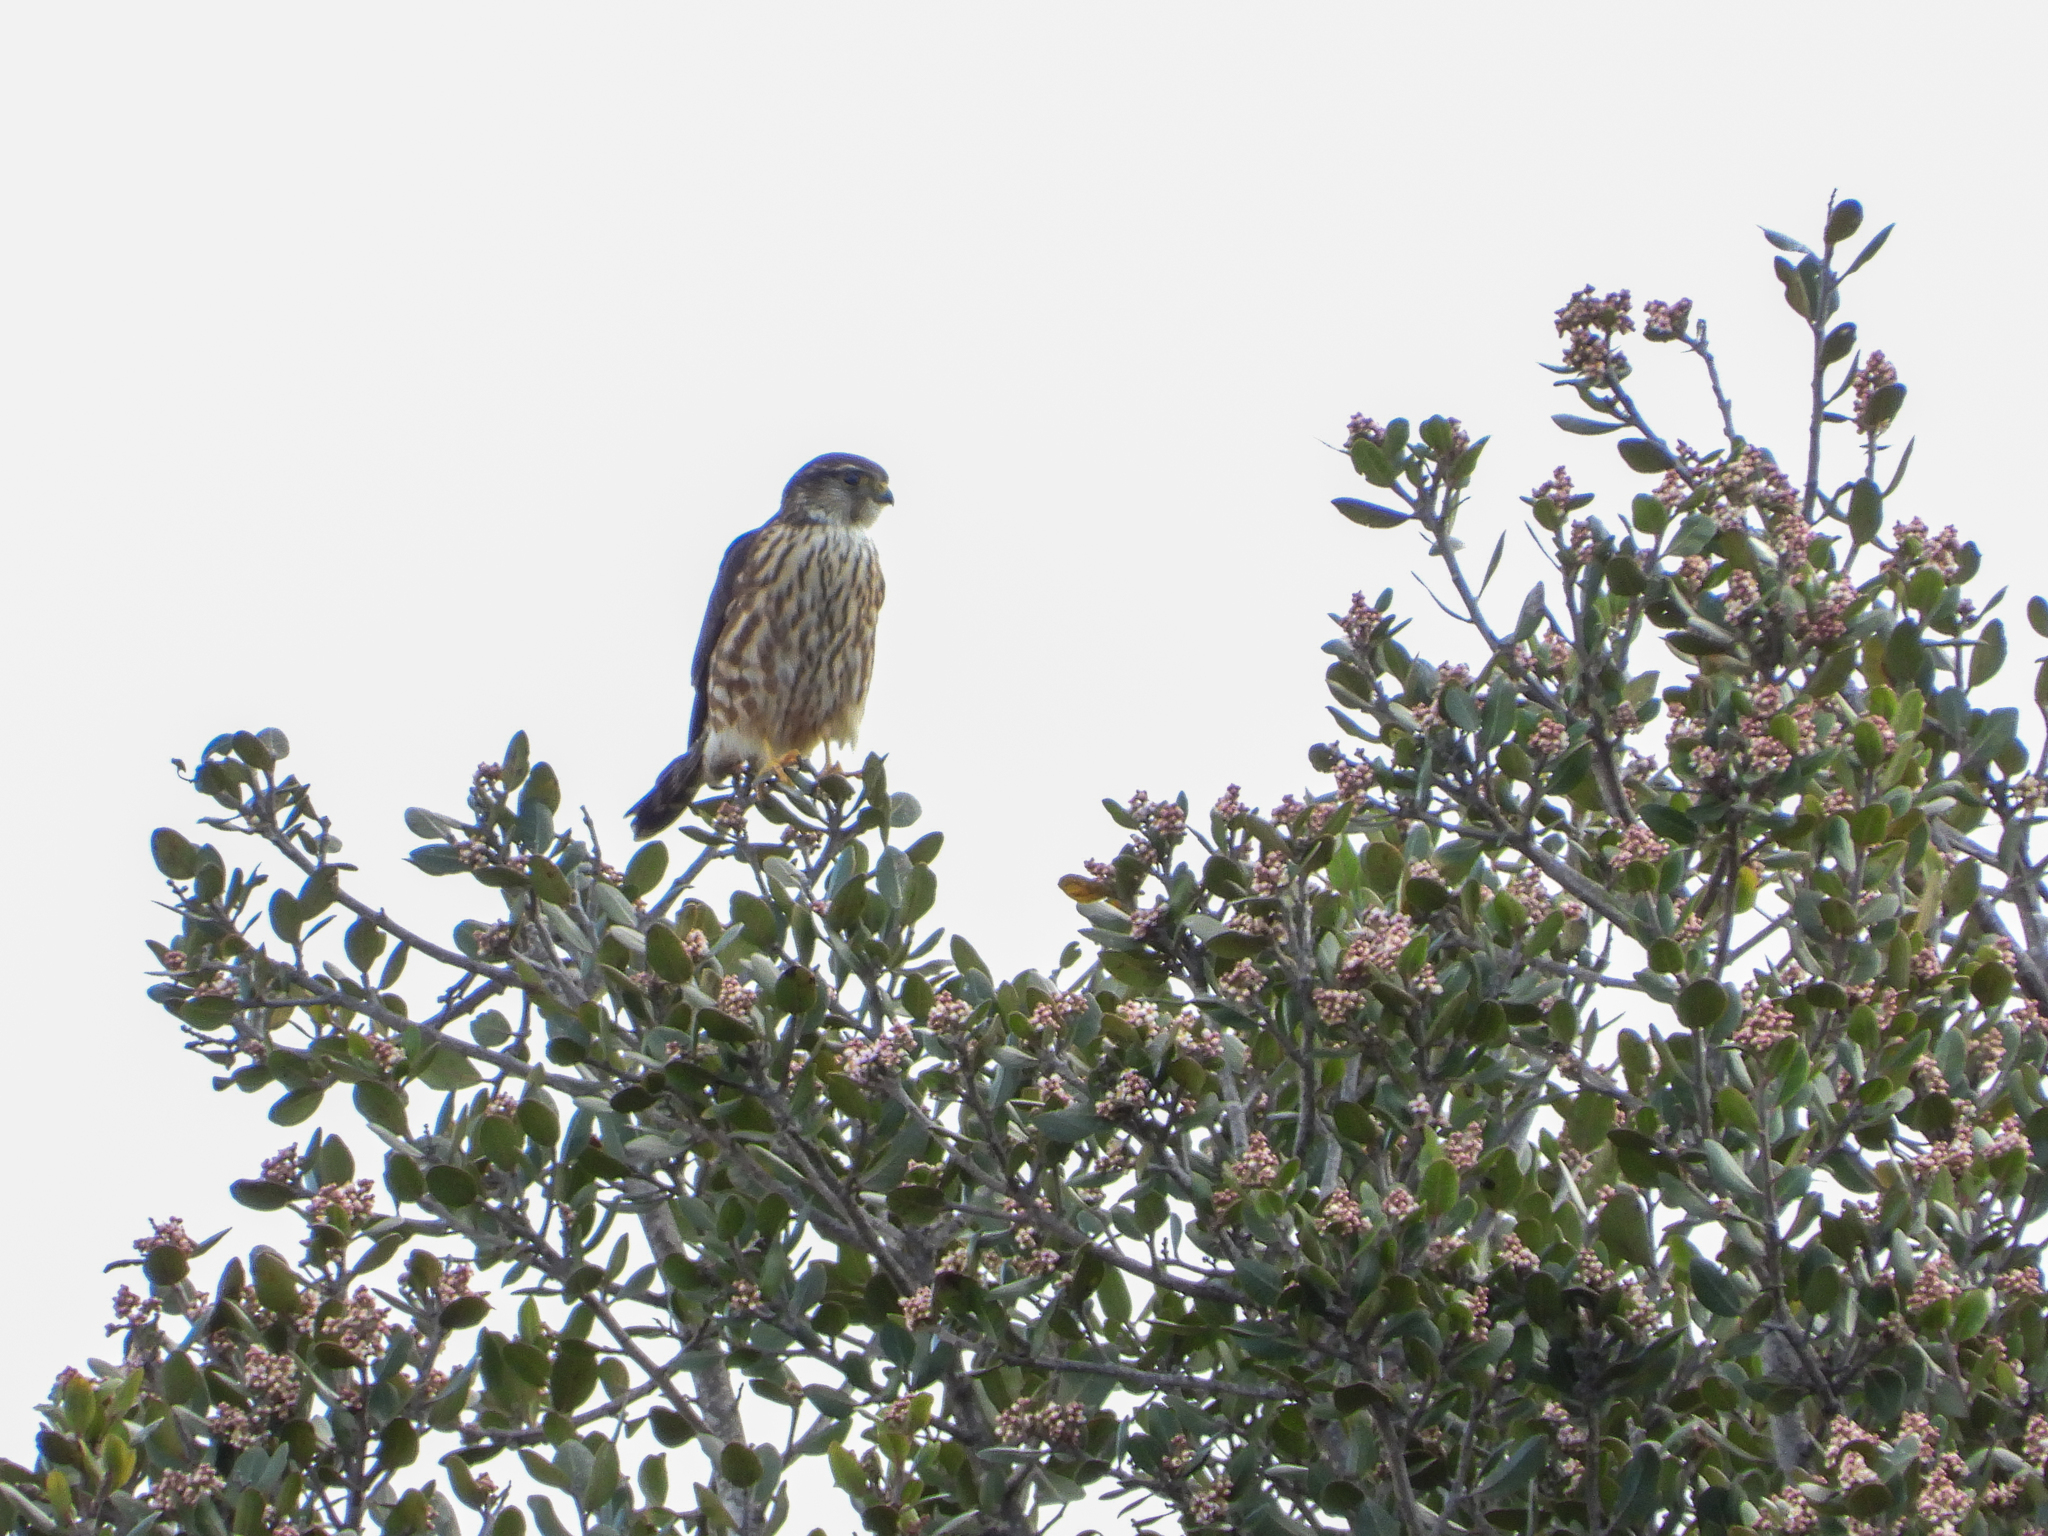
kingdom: Animalia
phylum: Chordata
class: Aves
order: Falconiformes
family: Falconidae
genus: Falco
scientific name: Falco columbarius
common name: Merlin
